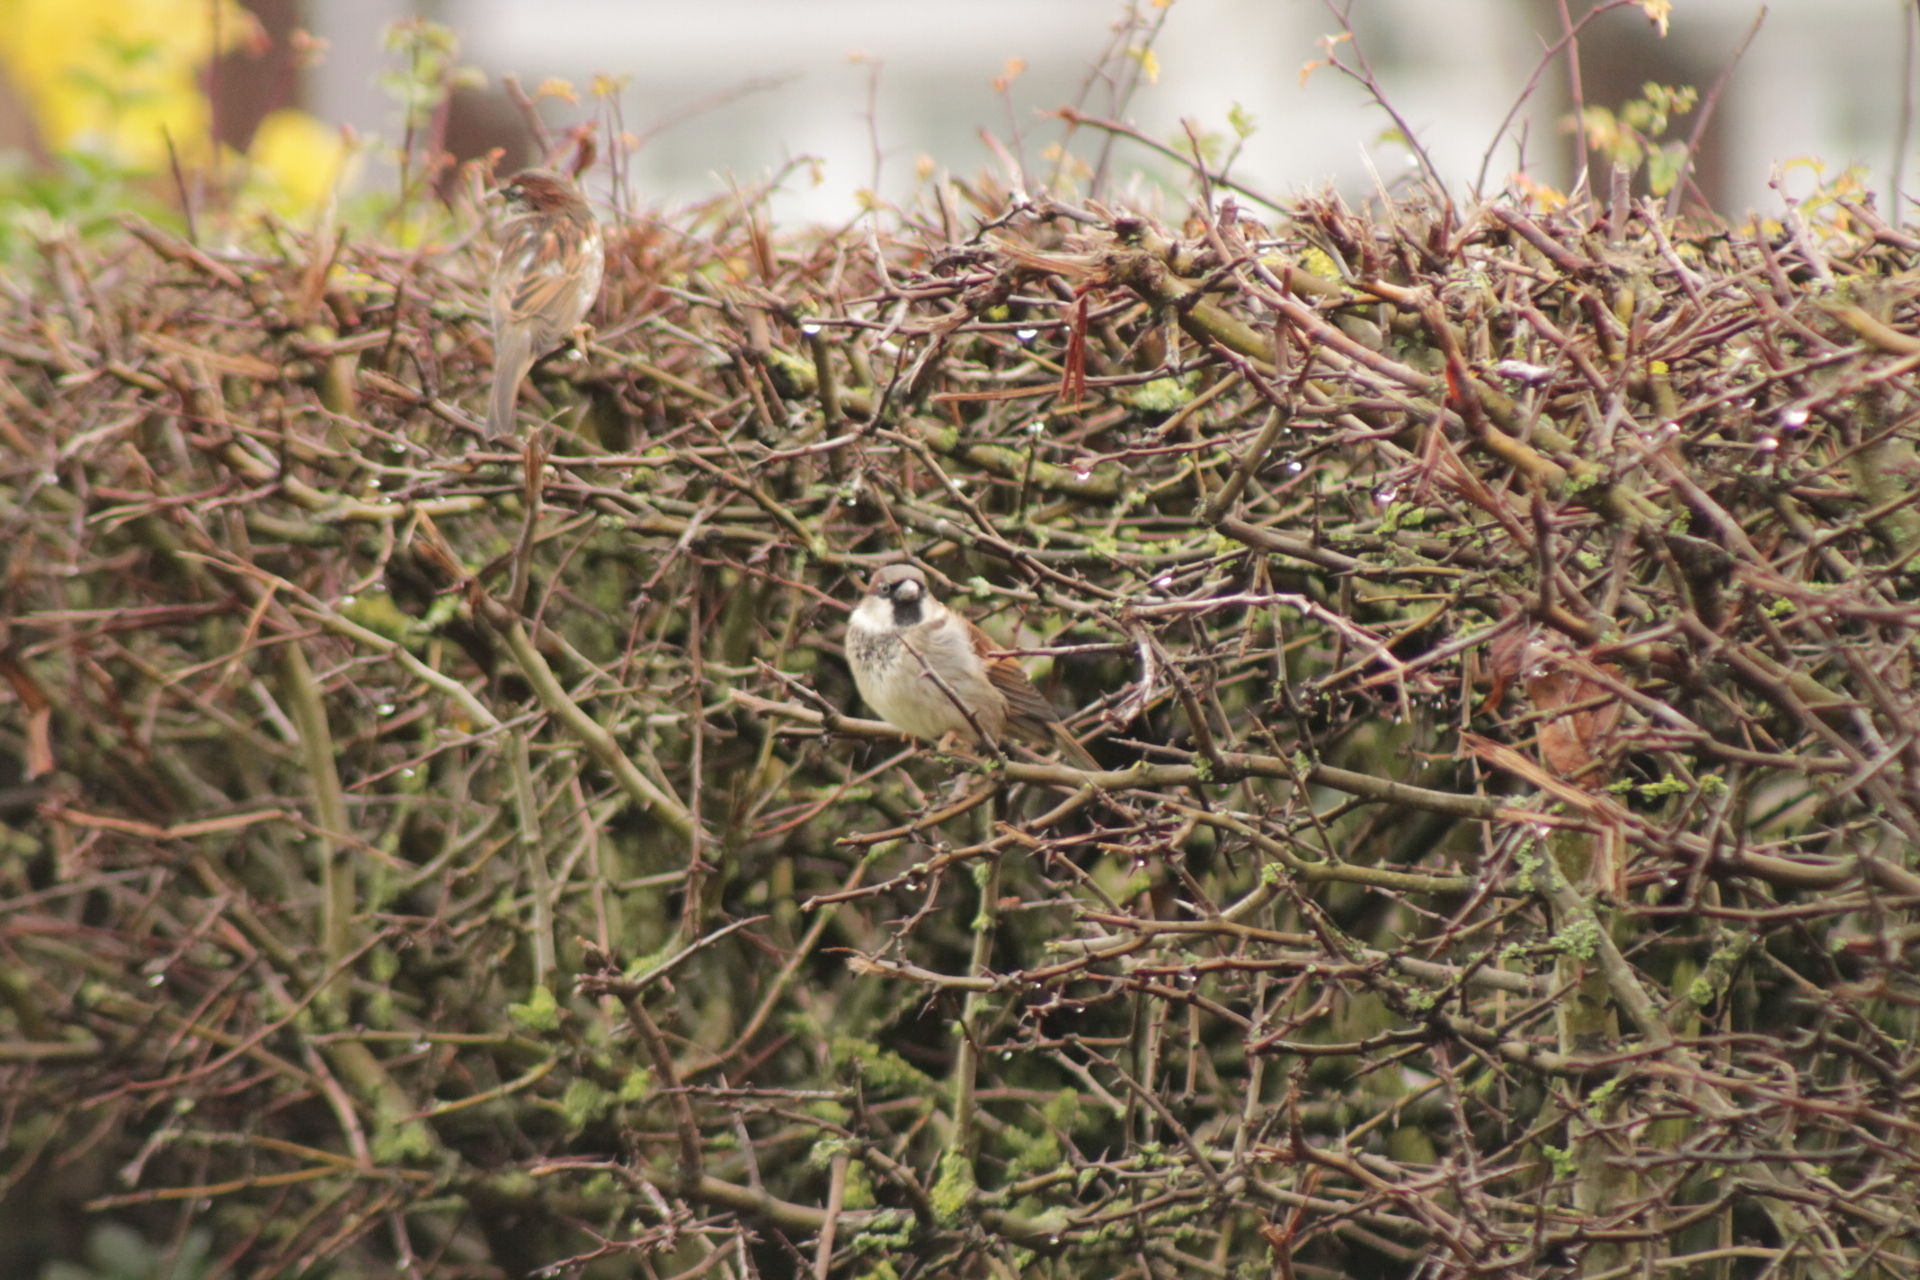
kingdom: Animalia
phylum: Chordata
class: Aves
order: Passeriformes
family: Passeridae
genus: Passer
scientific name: Passer domesticus
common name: House sparrow
